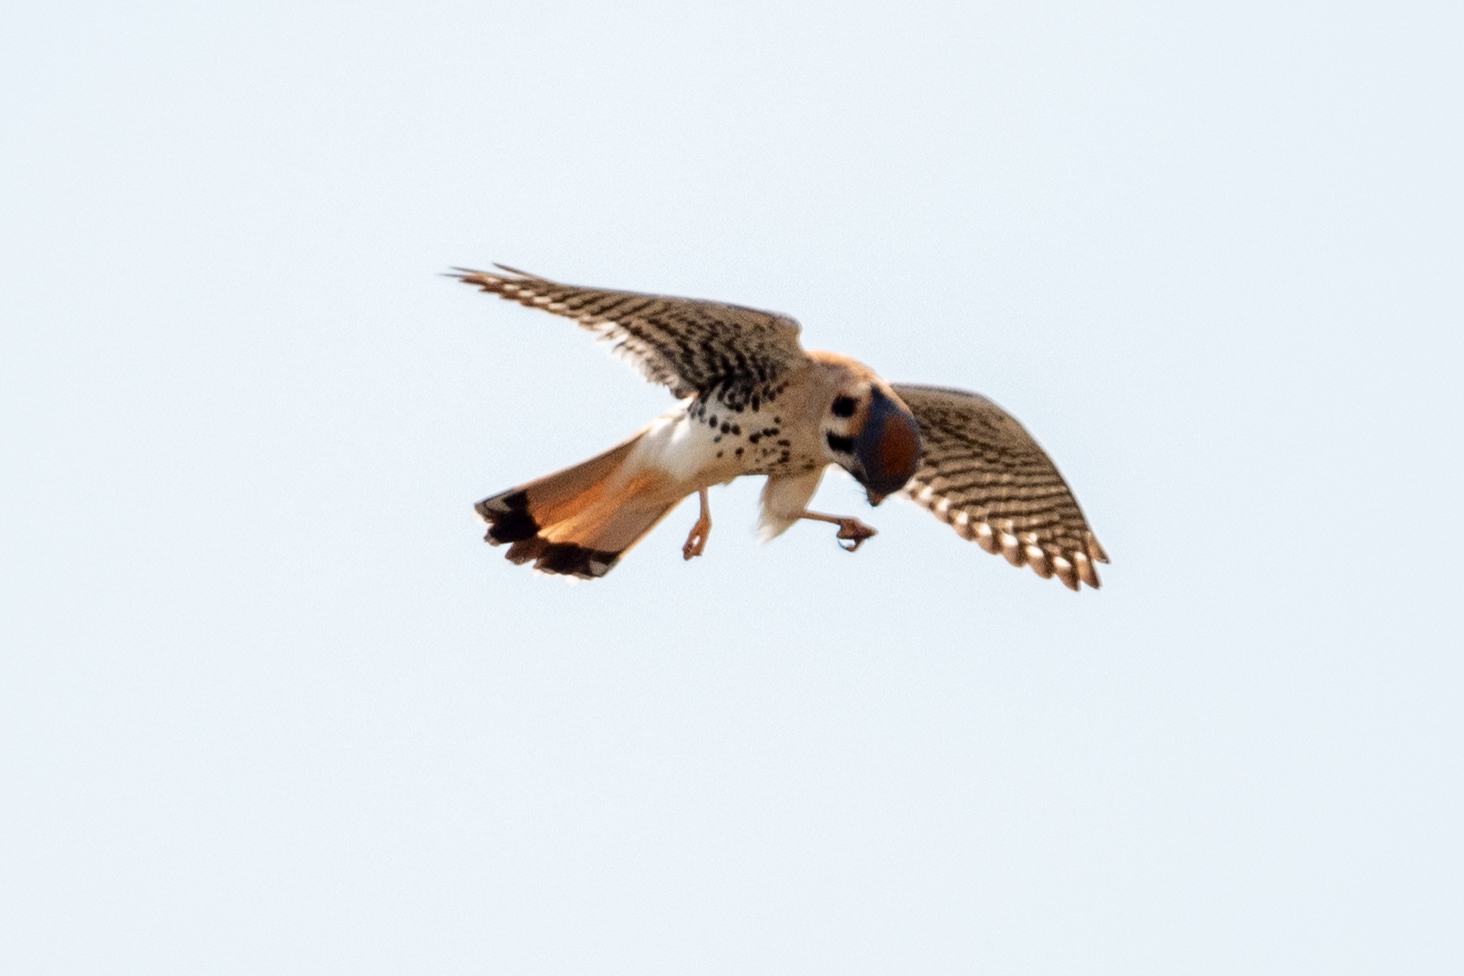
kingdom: Animalia
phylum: Chordata
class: Aves
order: Falconiformes
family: Falconidae
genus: Falco
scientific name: Falco sparverius
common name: American kestrel
